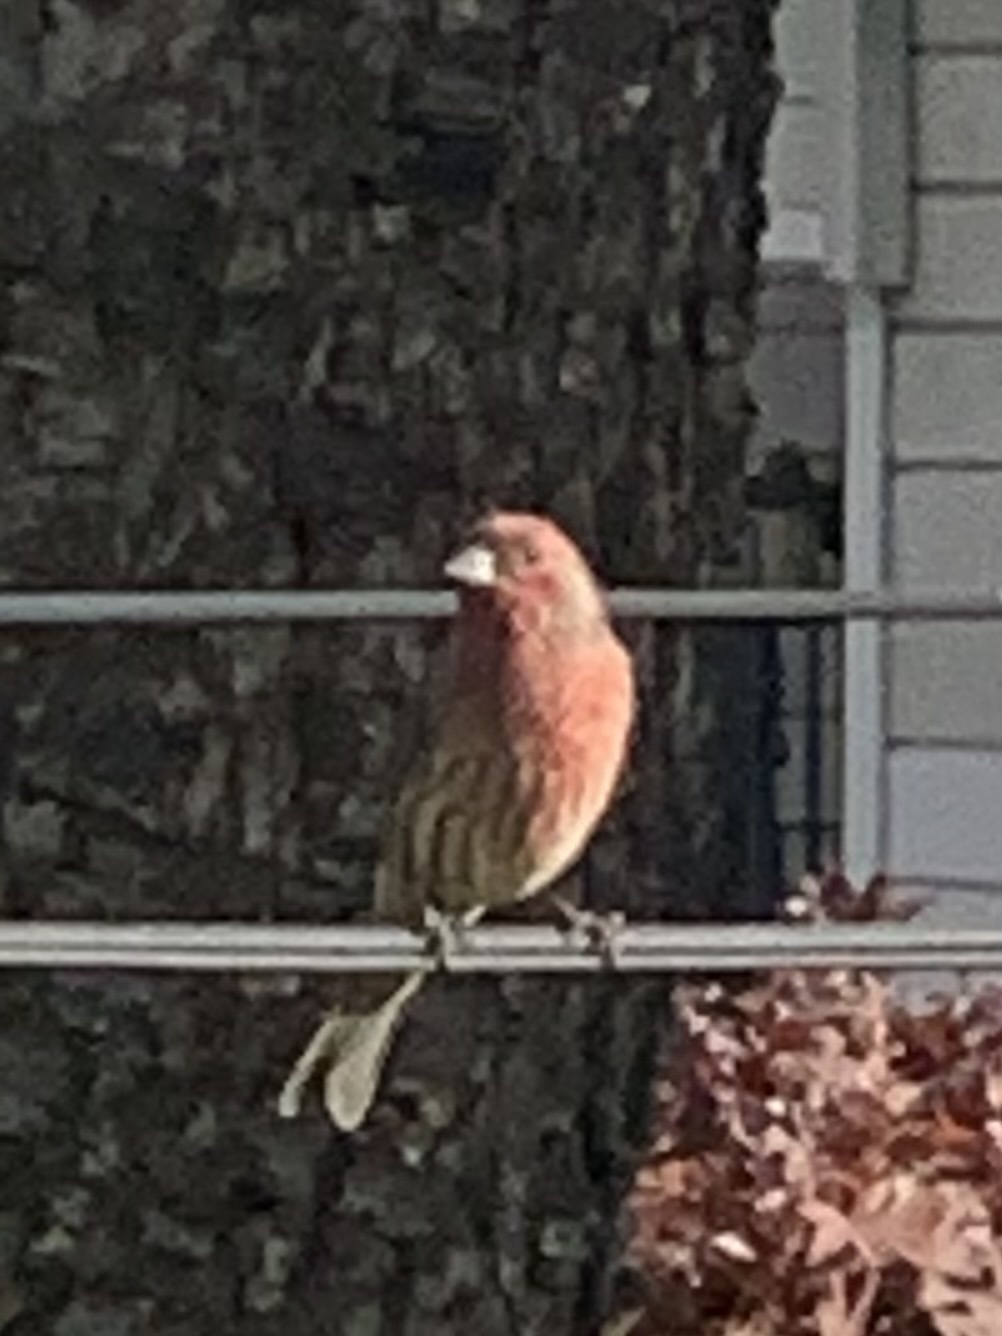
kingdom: Animalia
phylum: Chordata
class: Aves
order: Passeriformes
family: Fringillidae
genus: Haemorhous
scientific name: Haemorhous mexicanus
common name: House finch
